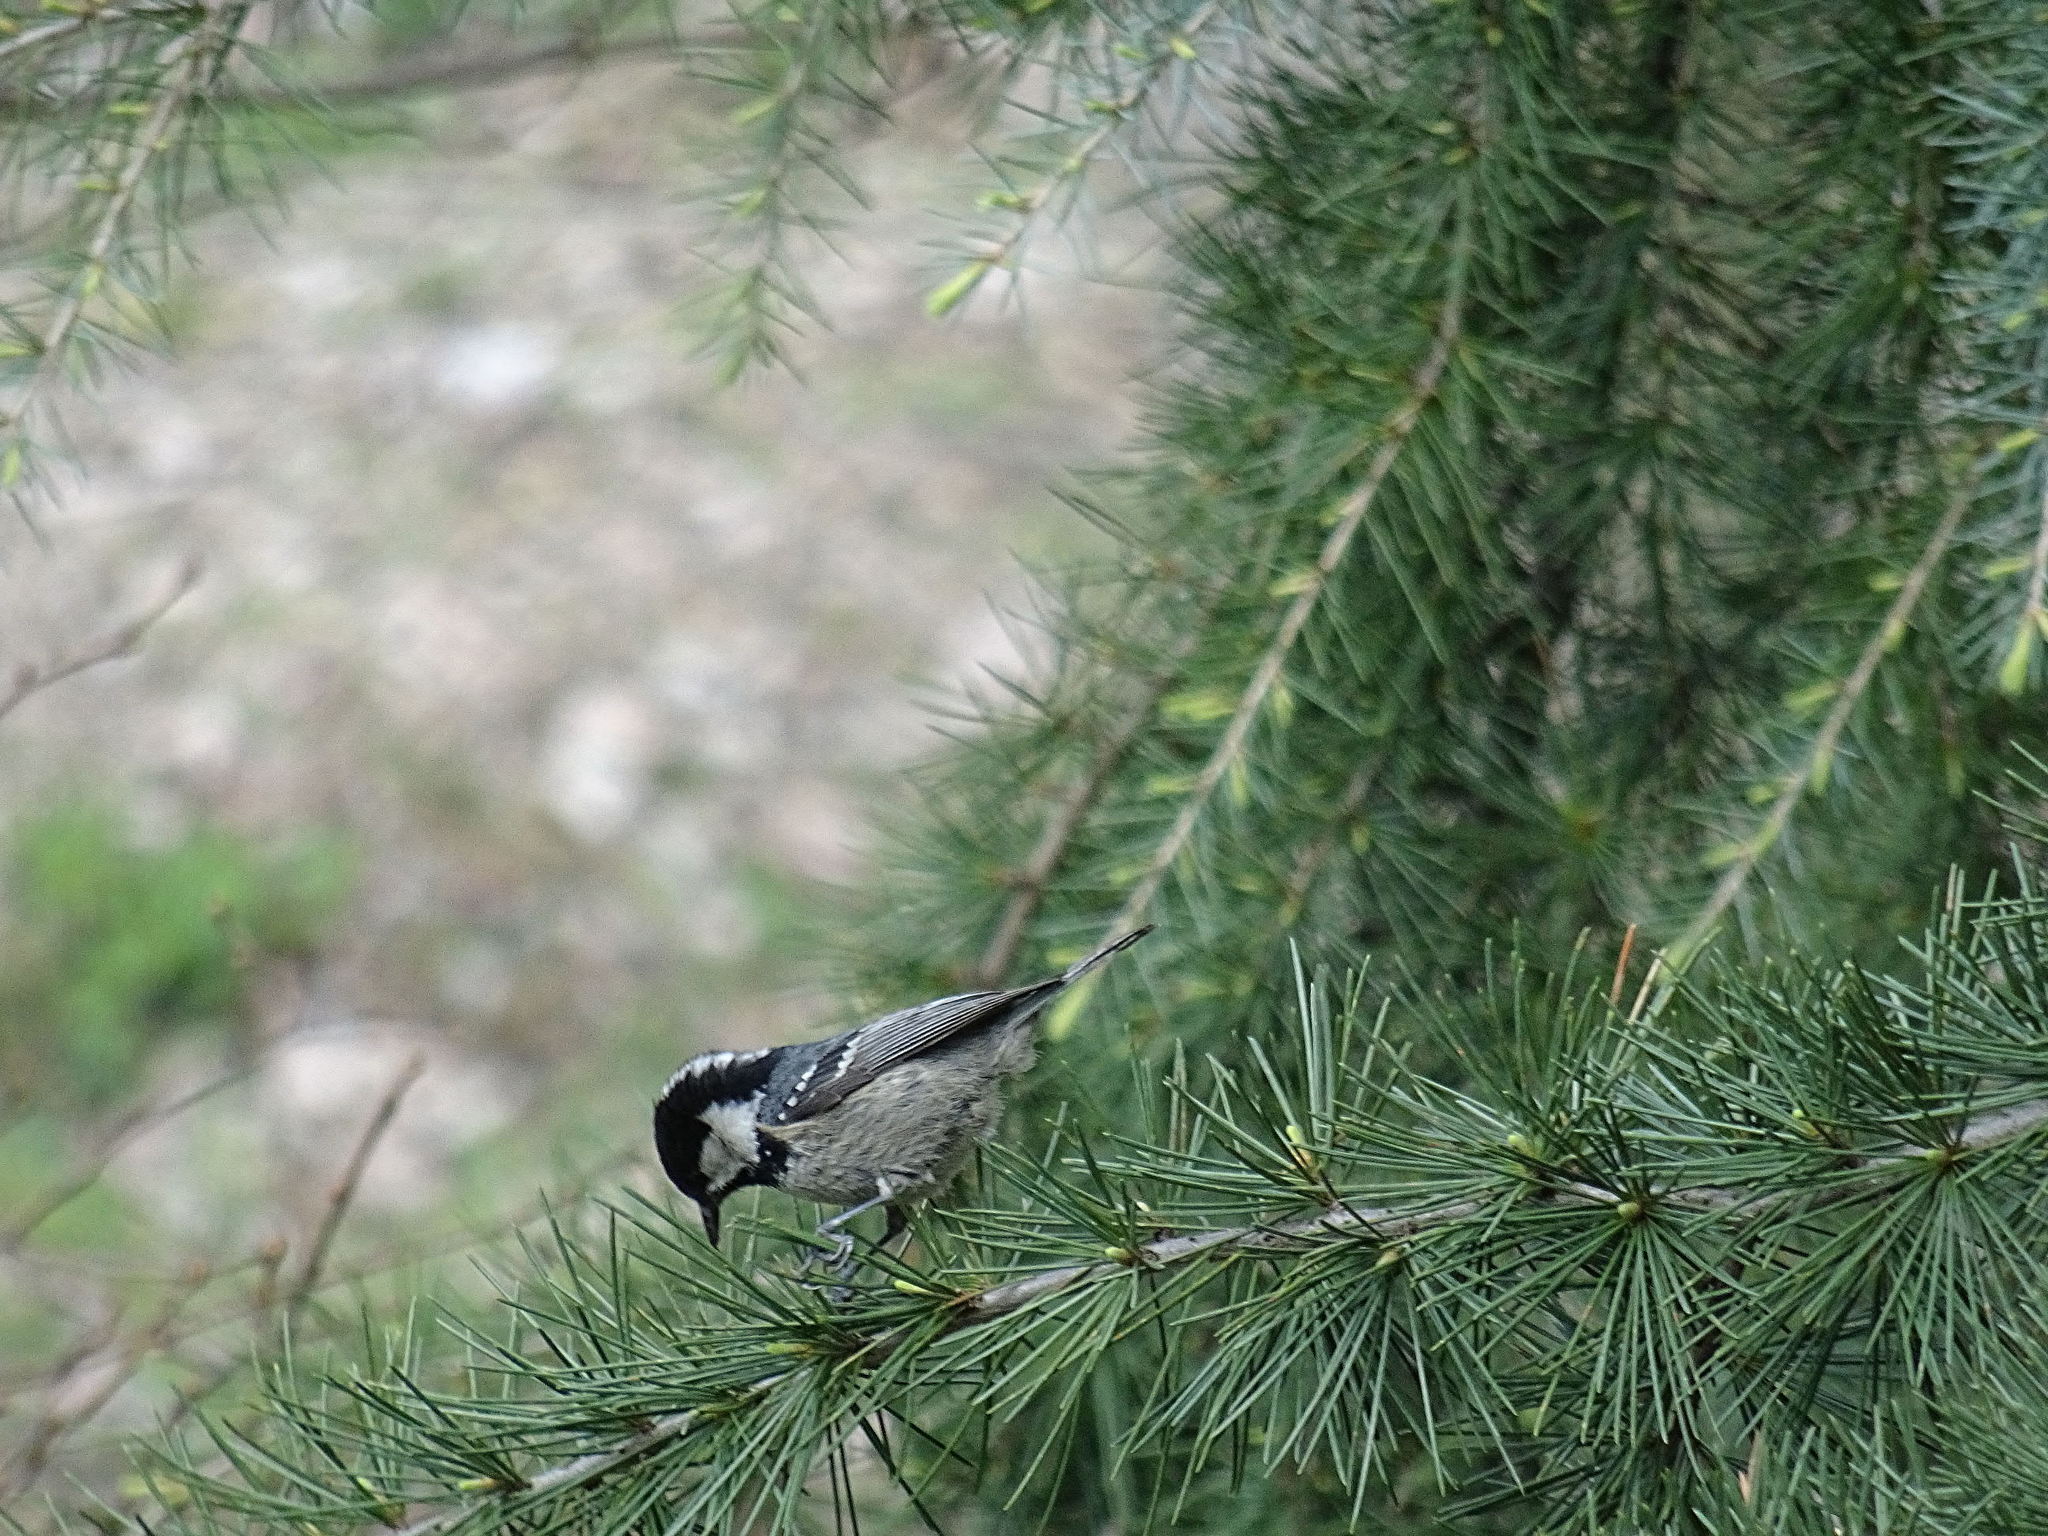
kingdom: Animalia
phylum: Chordata
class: Aves
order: Passeriformes
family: Paridae
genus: Periparus
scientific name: Periparus ater
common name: Coal tit
